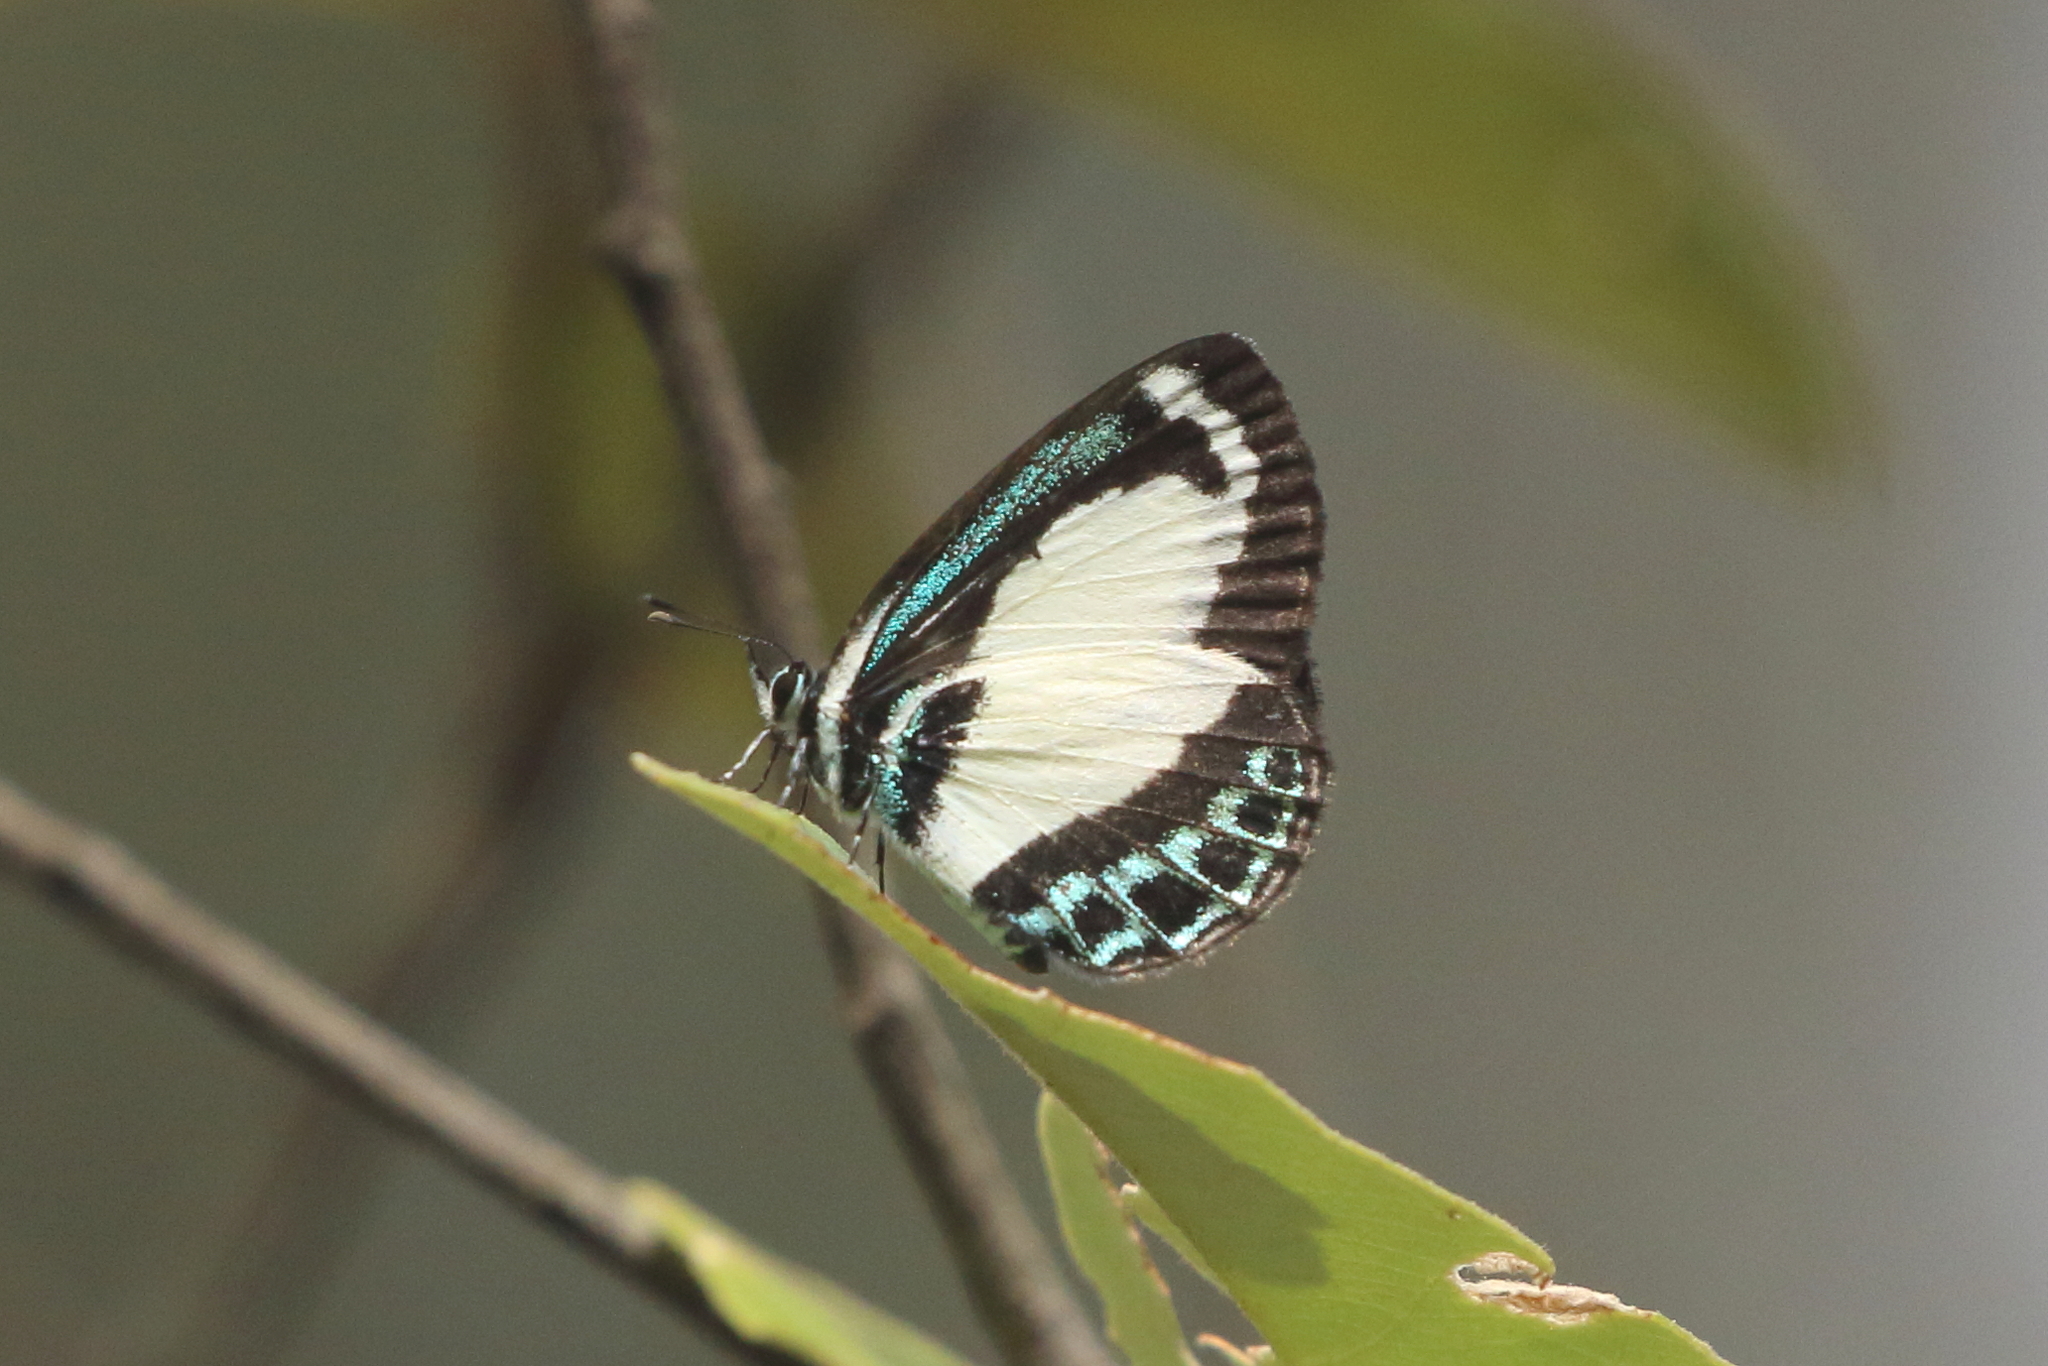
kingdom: Animalia
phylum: Arthropoda
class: Insecta
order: Lepidoptera
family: Lycaenidae
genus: Psychonotis
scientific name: Psychonotis caelius
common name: Small green banded blue
